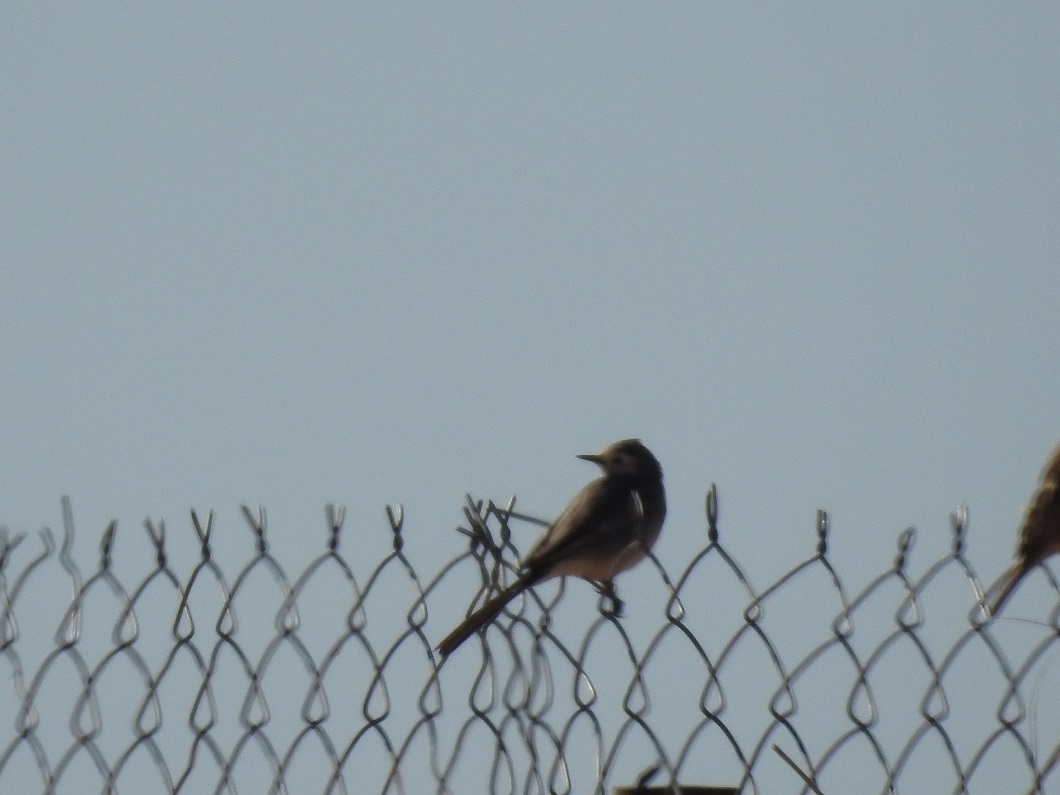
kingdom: Animalia
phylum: Chordata
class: Aves
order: Passeriformes
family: Motacillidae
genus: Motacilla
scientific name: Motacilla alba
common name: White wagtail
